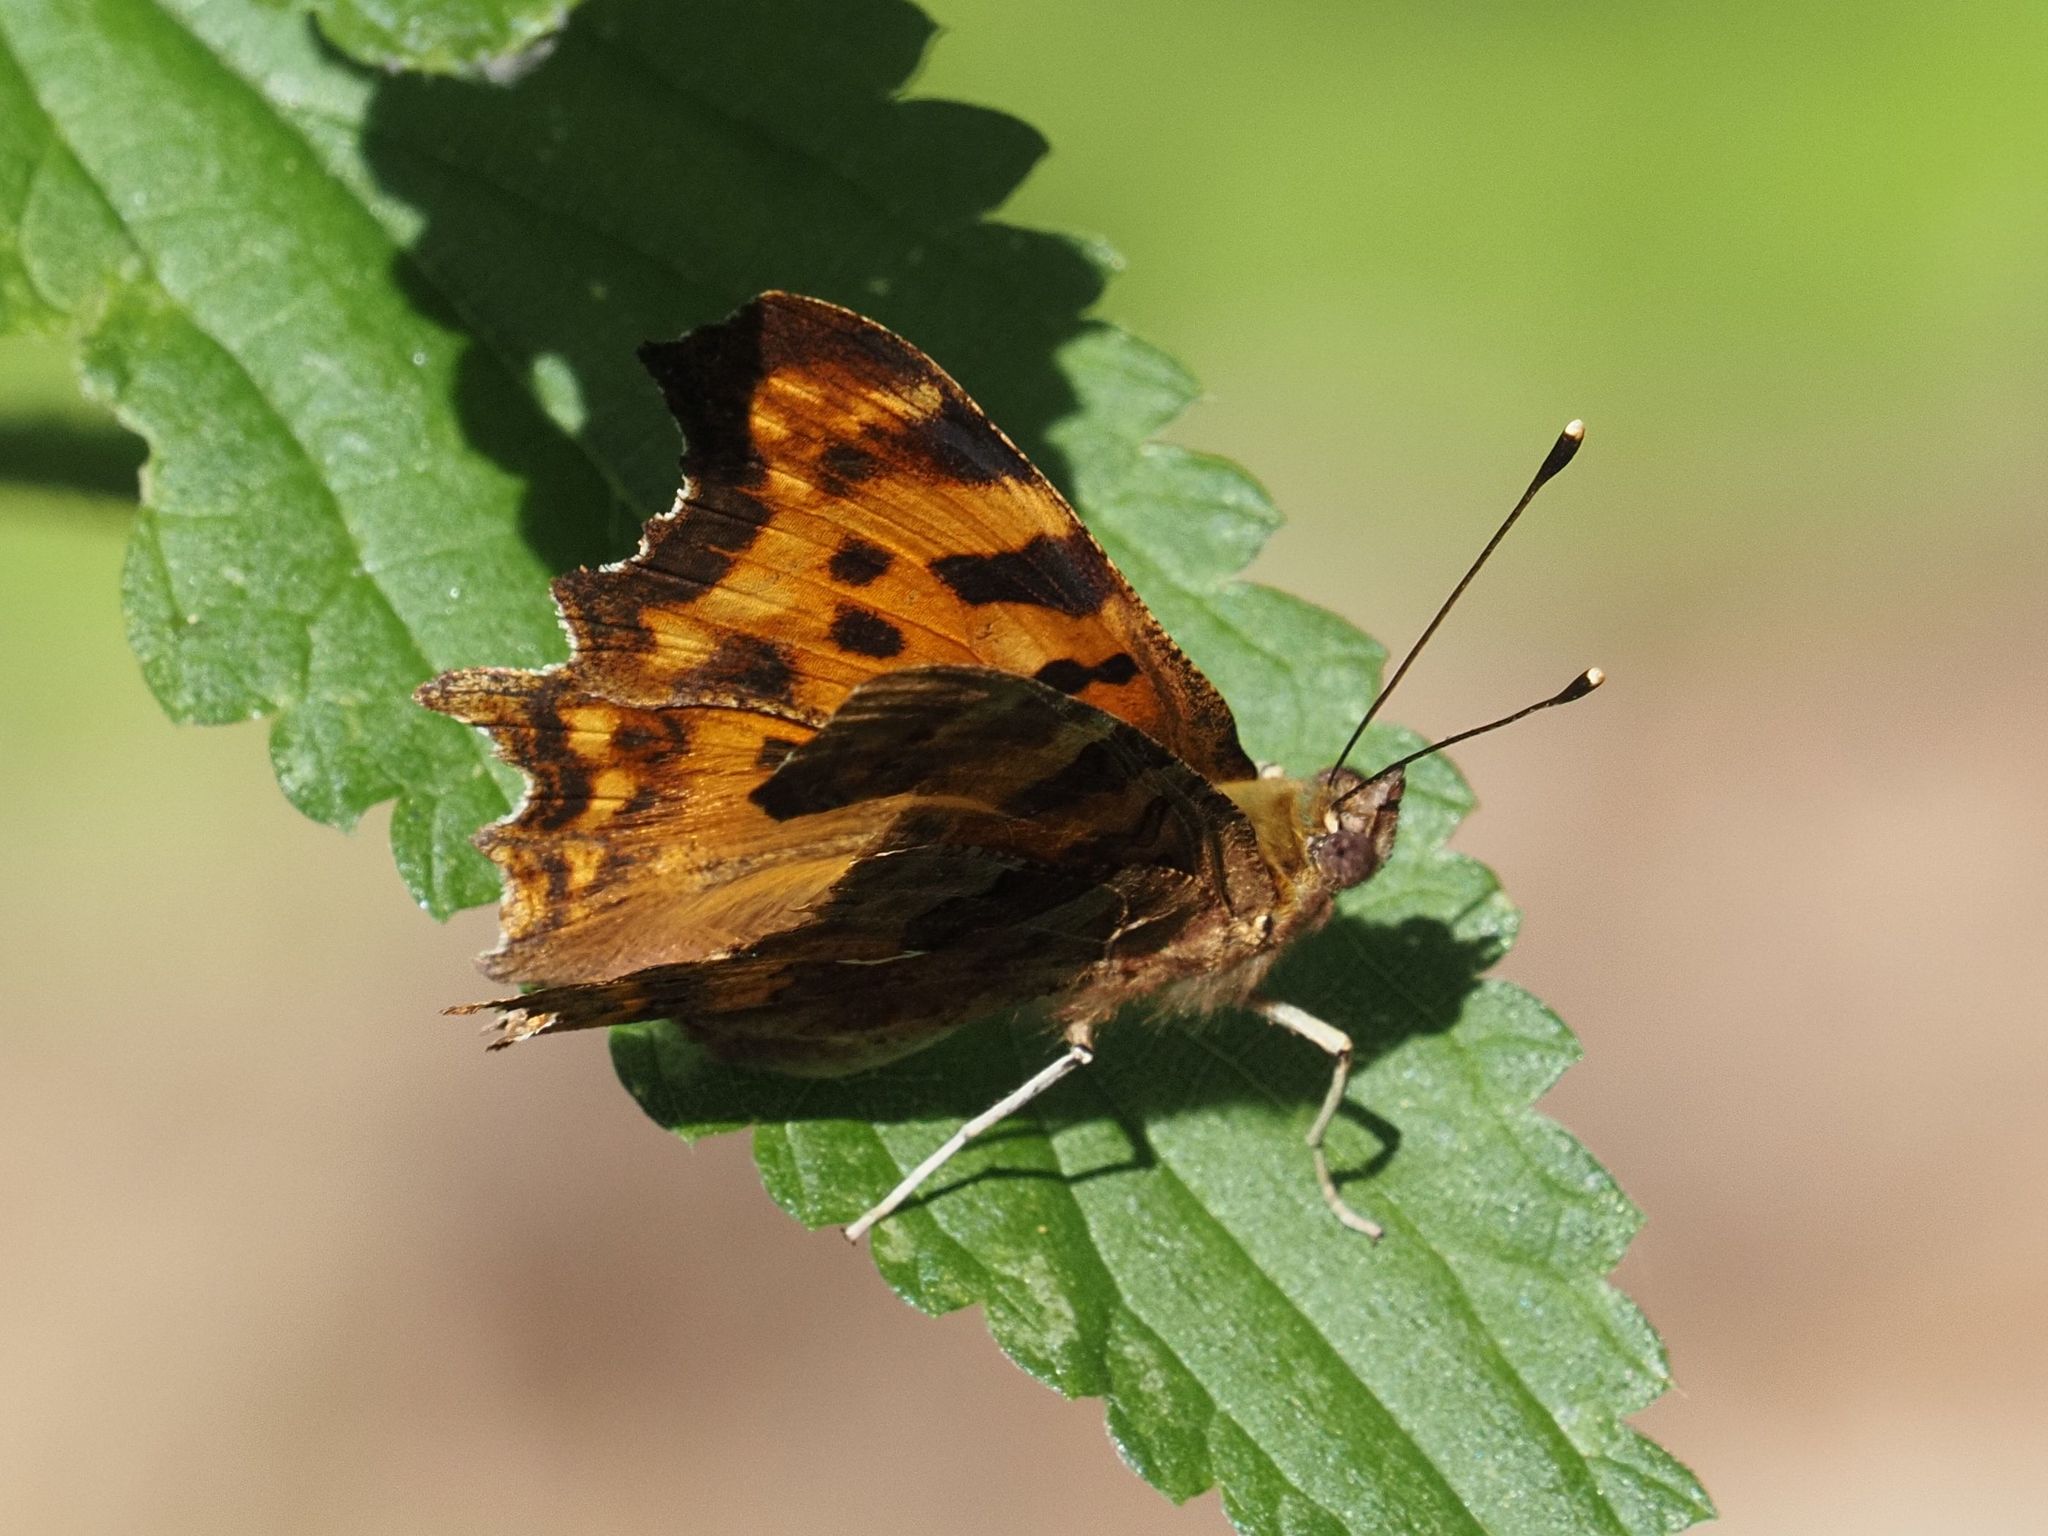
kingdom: Animalia
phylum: Arthropoda
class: Insecta
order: Lepidoptera
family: Nymphalidae
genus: Polygonia
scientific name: Polygonia c-album
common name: Comma
